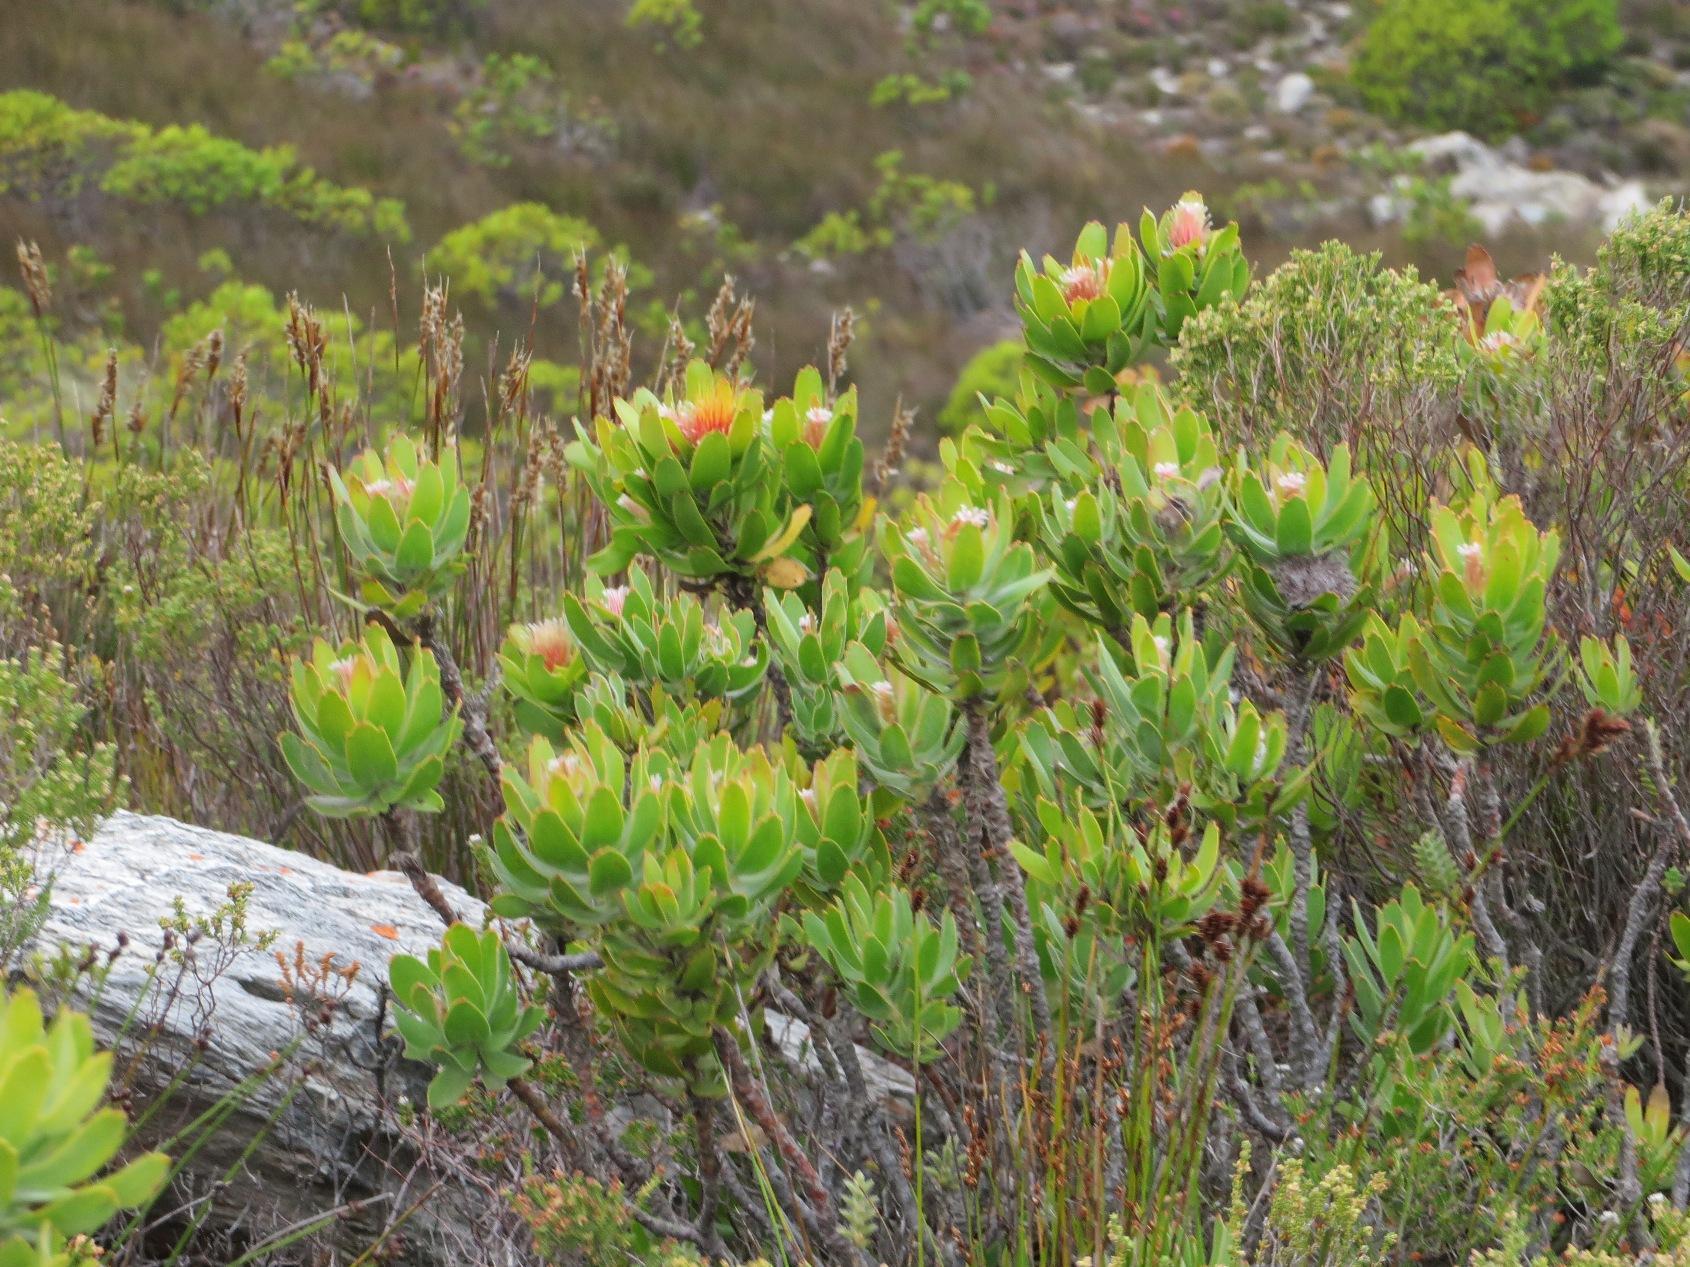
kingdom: Plantae
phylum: Tracheophyta
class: Magnoliopsida
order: Proteales
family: Proteaceae
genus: Leucospermum
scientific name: Leucospermum oleifolium
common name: Matches
